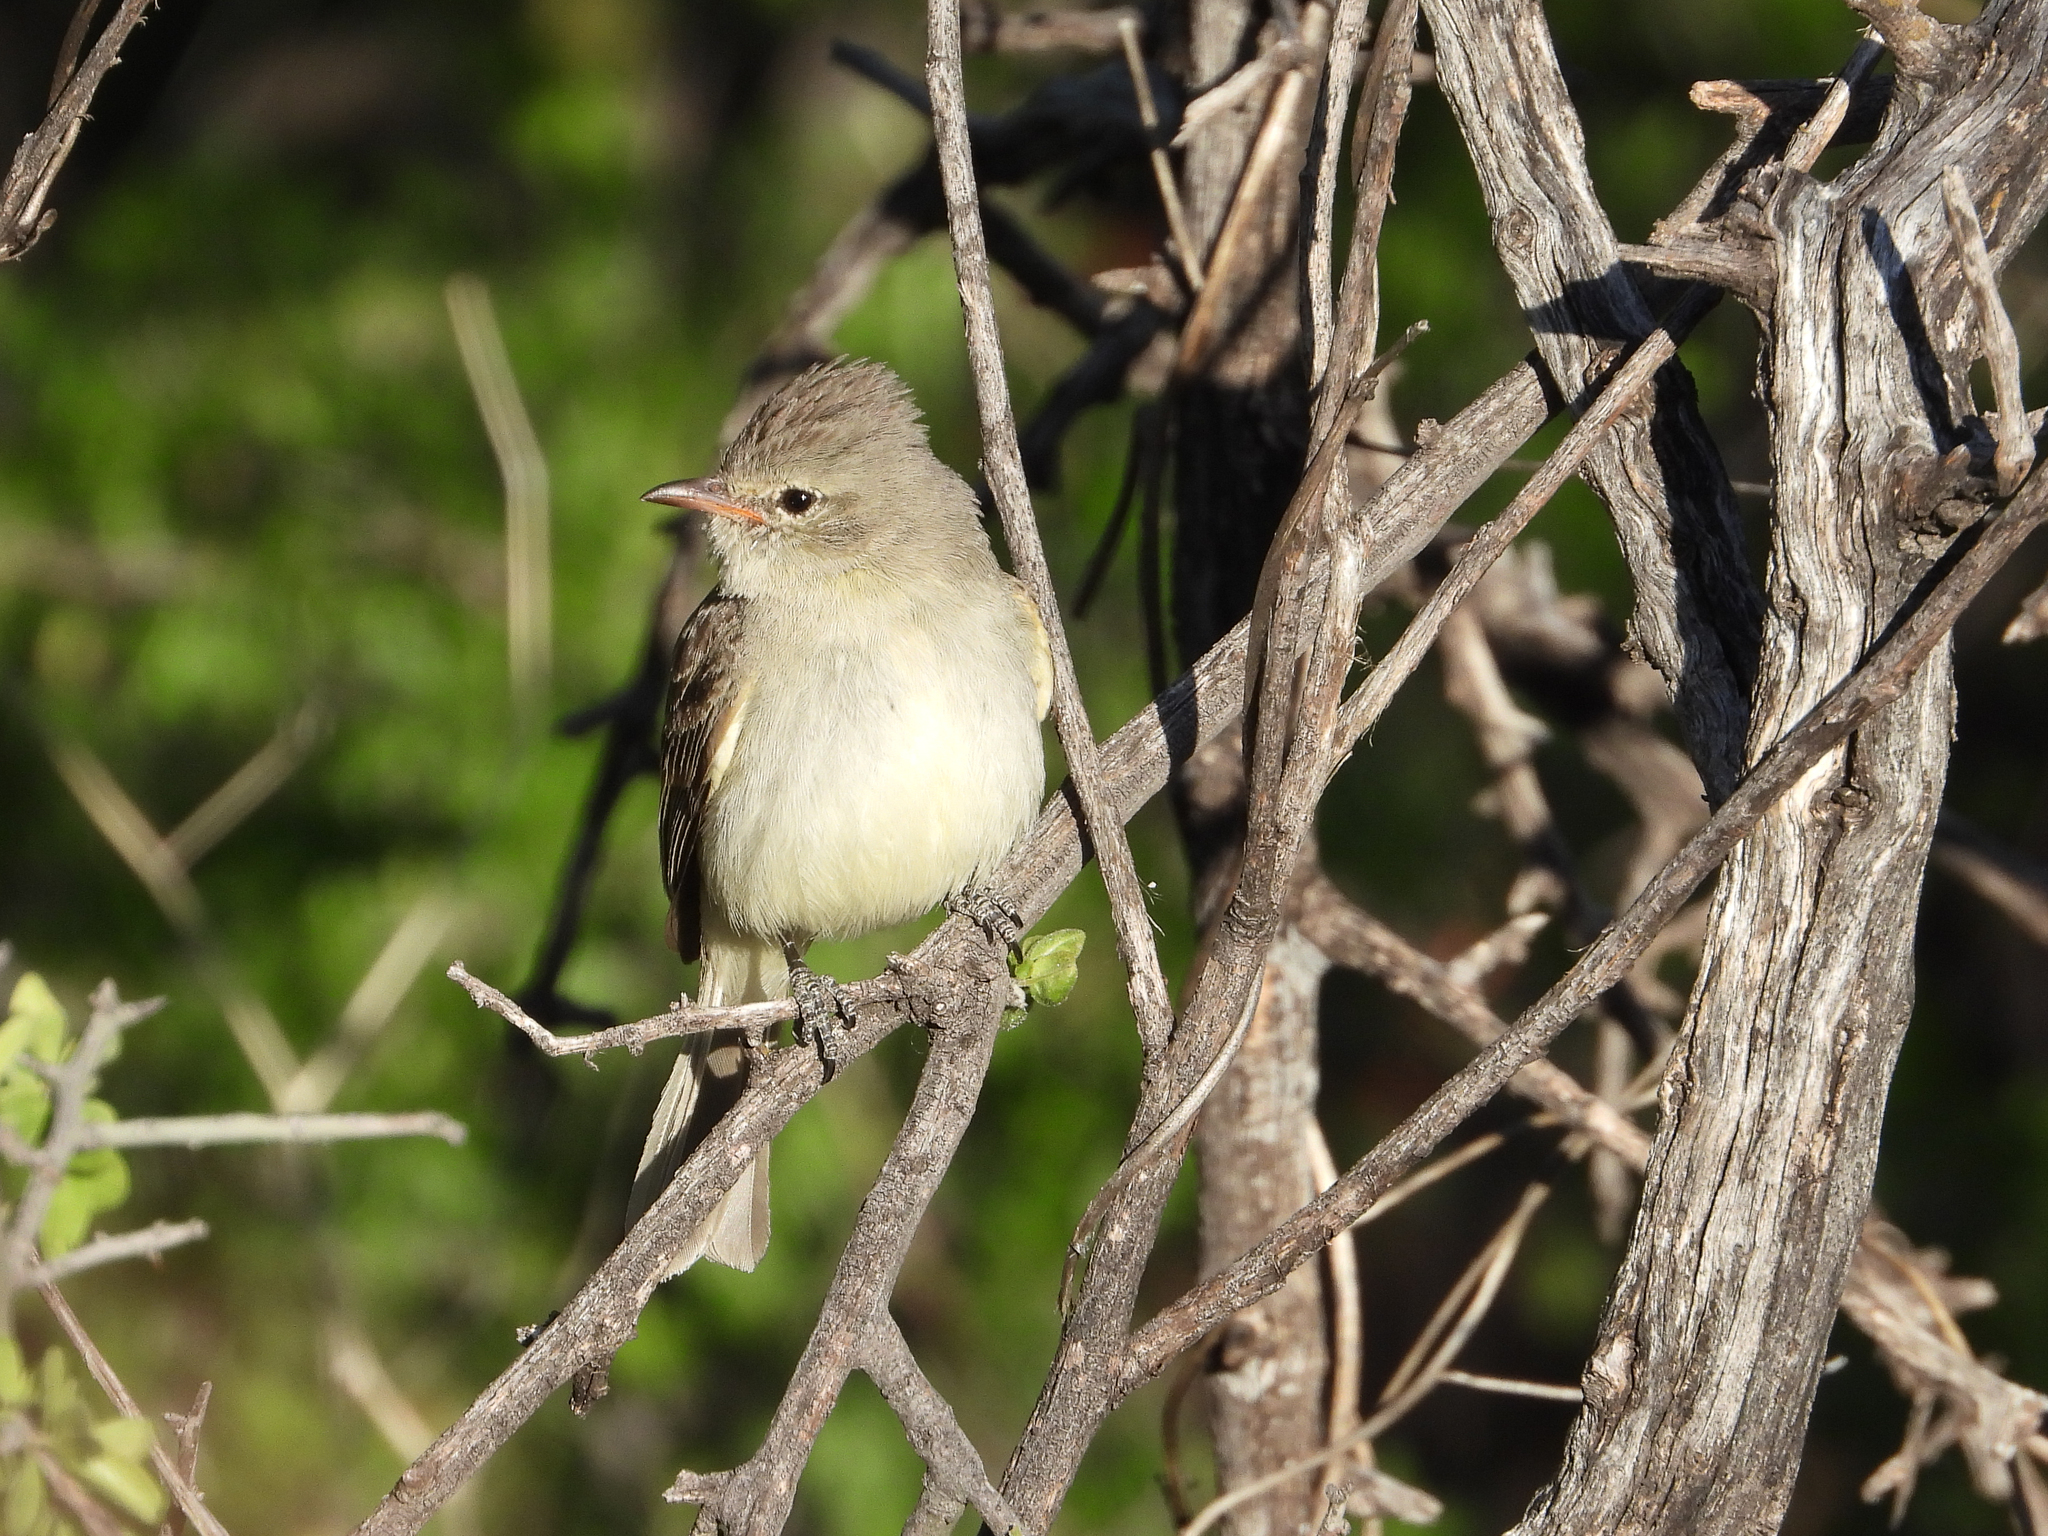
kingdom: Animalia
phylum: Chordata
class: Aves
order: Passeriformes
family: Tyrannidae
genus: Camptostoma
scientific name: Camptostoma imberbe
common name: Northern beardless-tyrannulet
